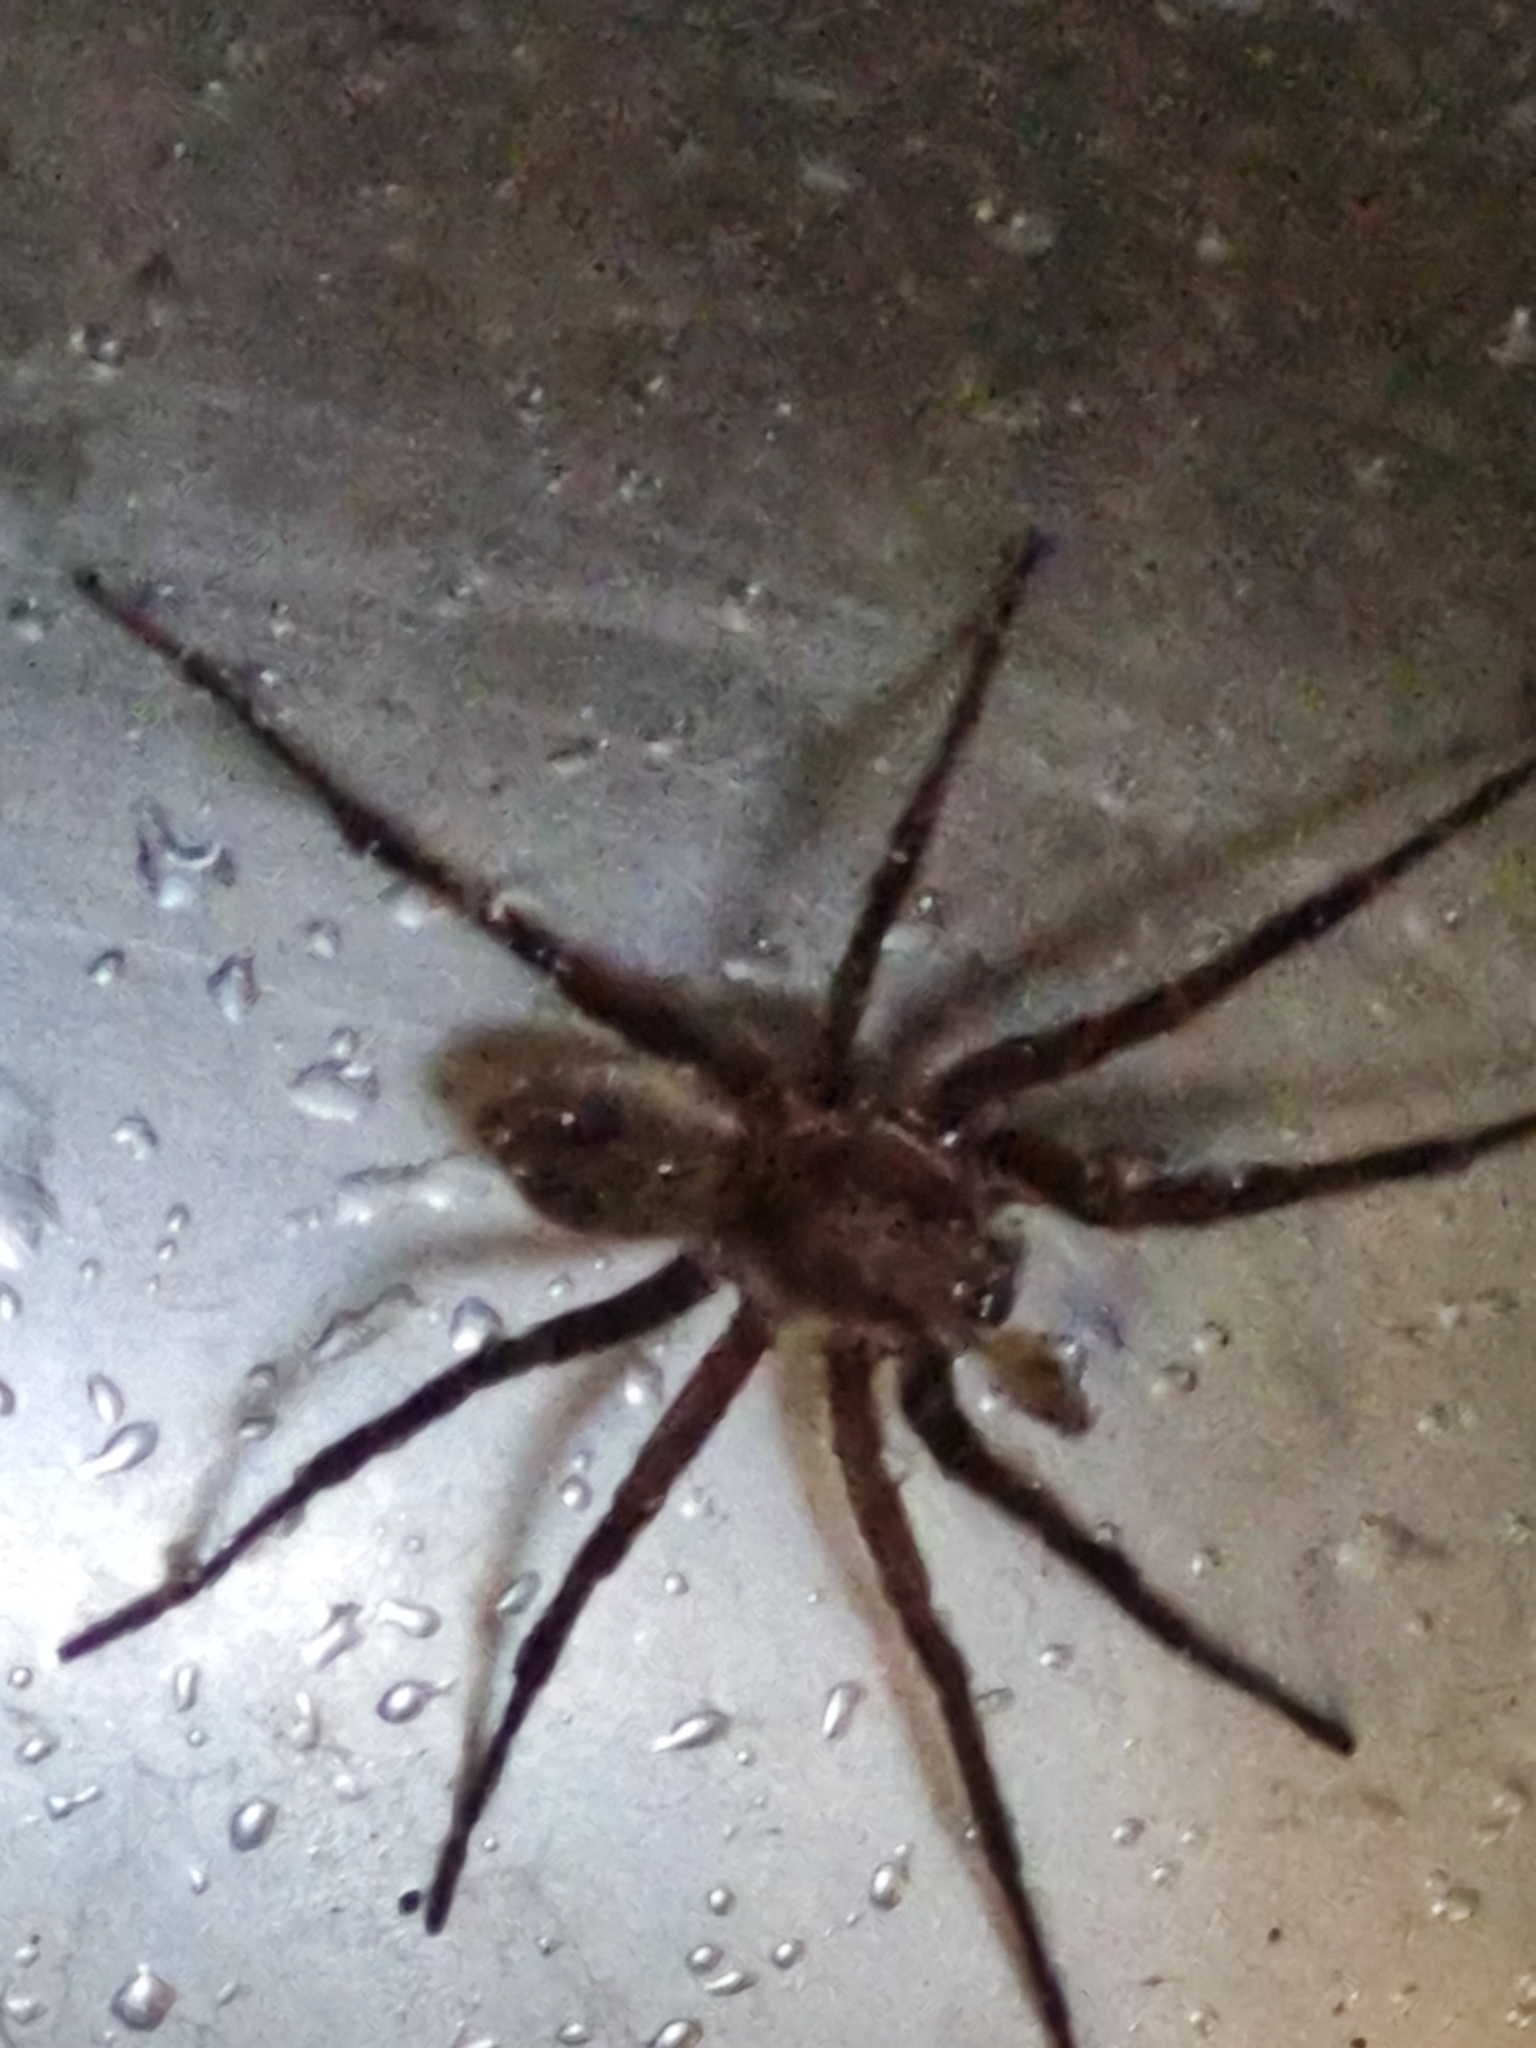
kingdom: Animalia
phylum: Arthropoda
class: Arachnida
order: Araneae
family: Zoropsidae
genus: Uliodon
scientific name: Uliodon albopunctatus
